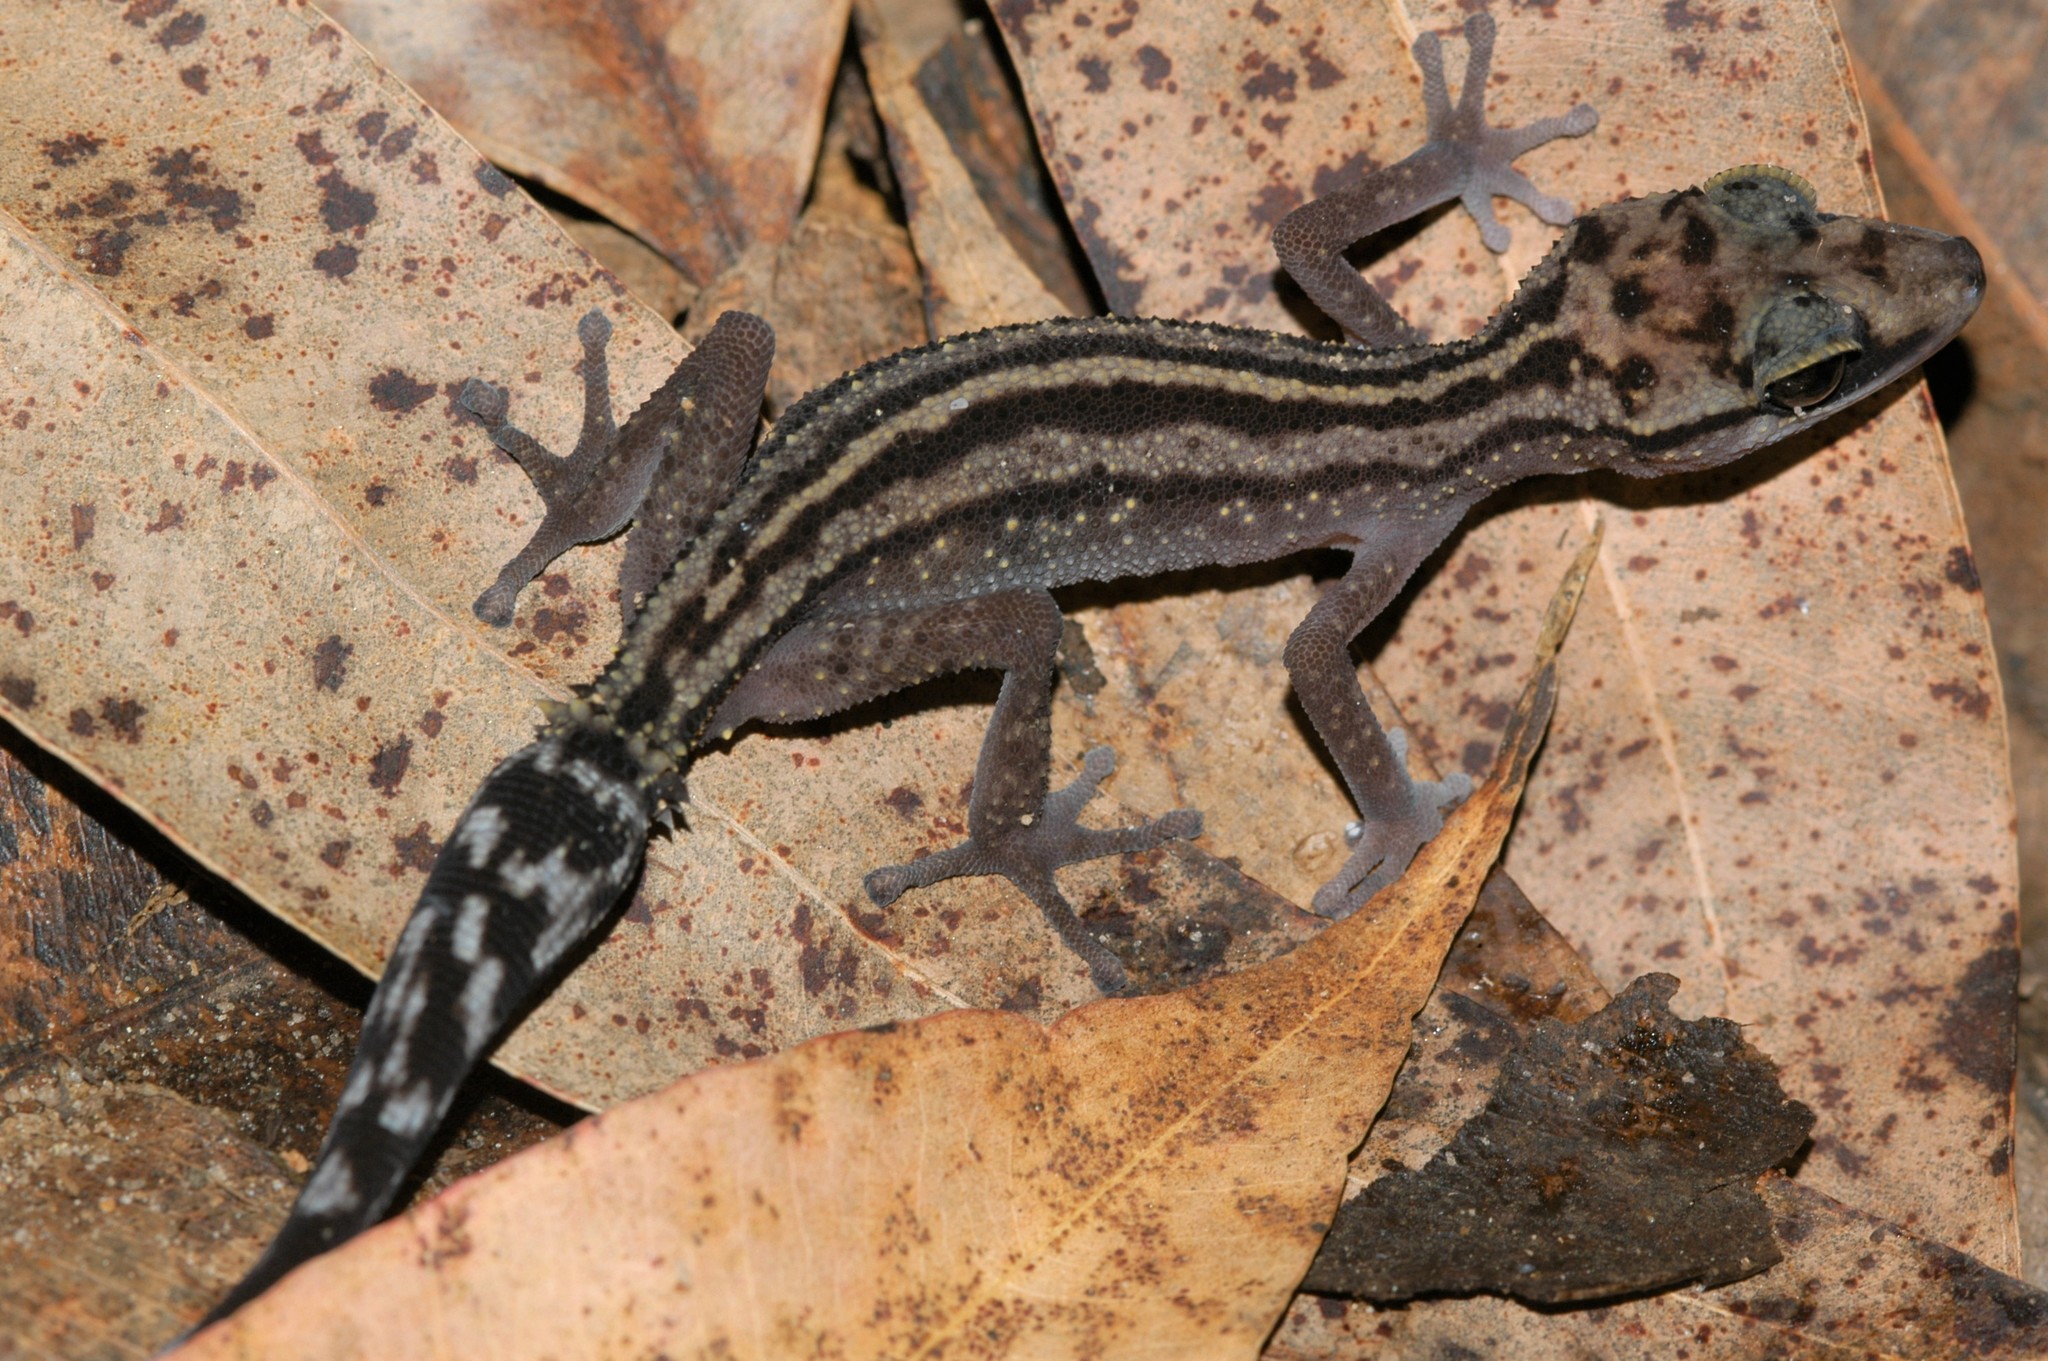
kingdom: Animalia
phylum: Chordata
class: Squamata
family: Gekkonidae
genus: Paroedura
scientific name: Paroedura gracilis
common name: Graceful madagascar ground gecko
